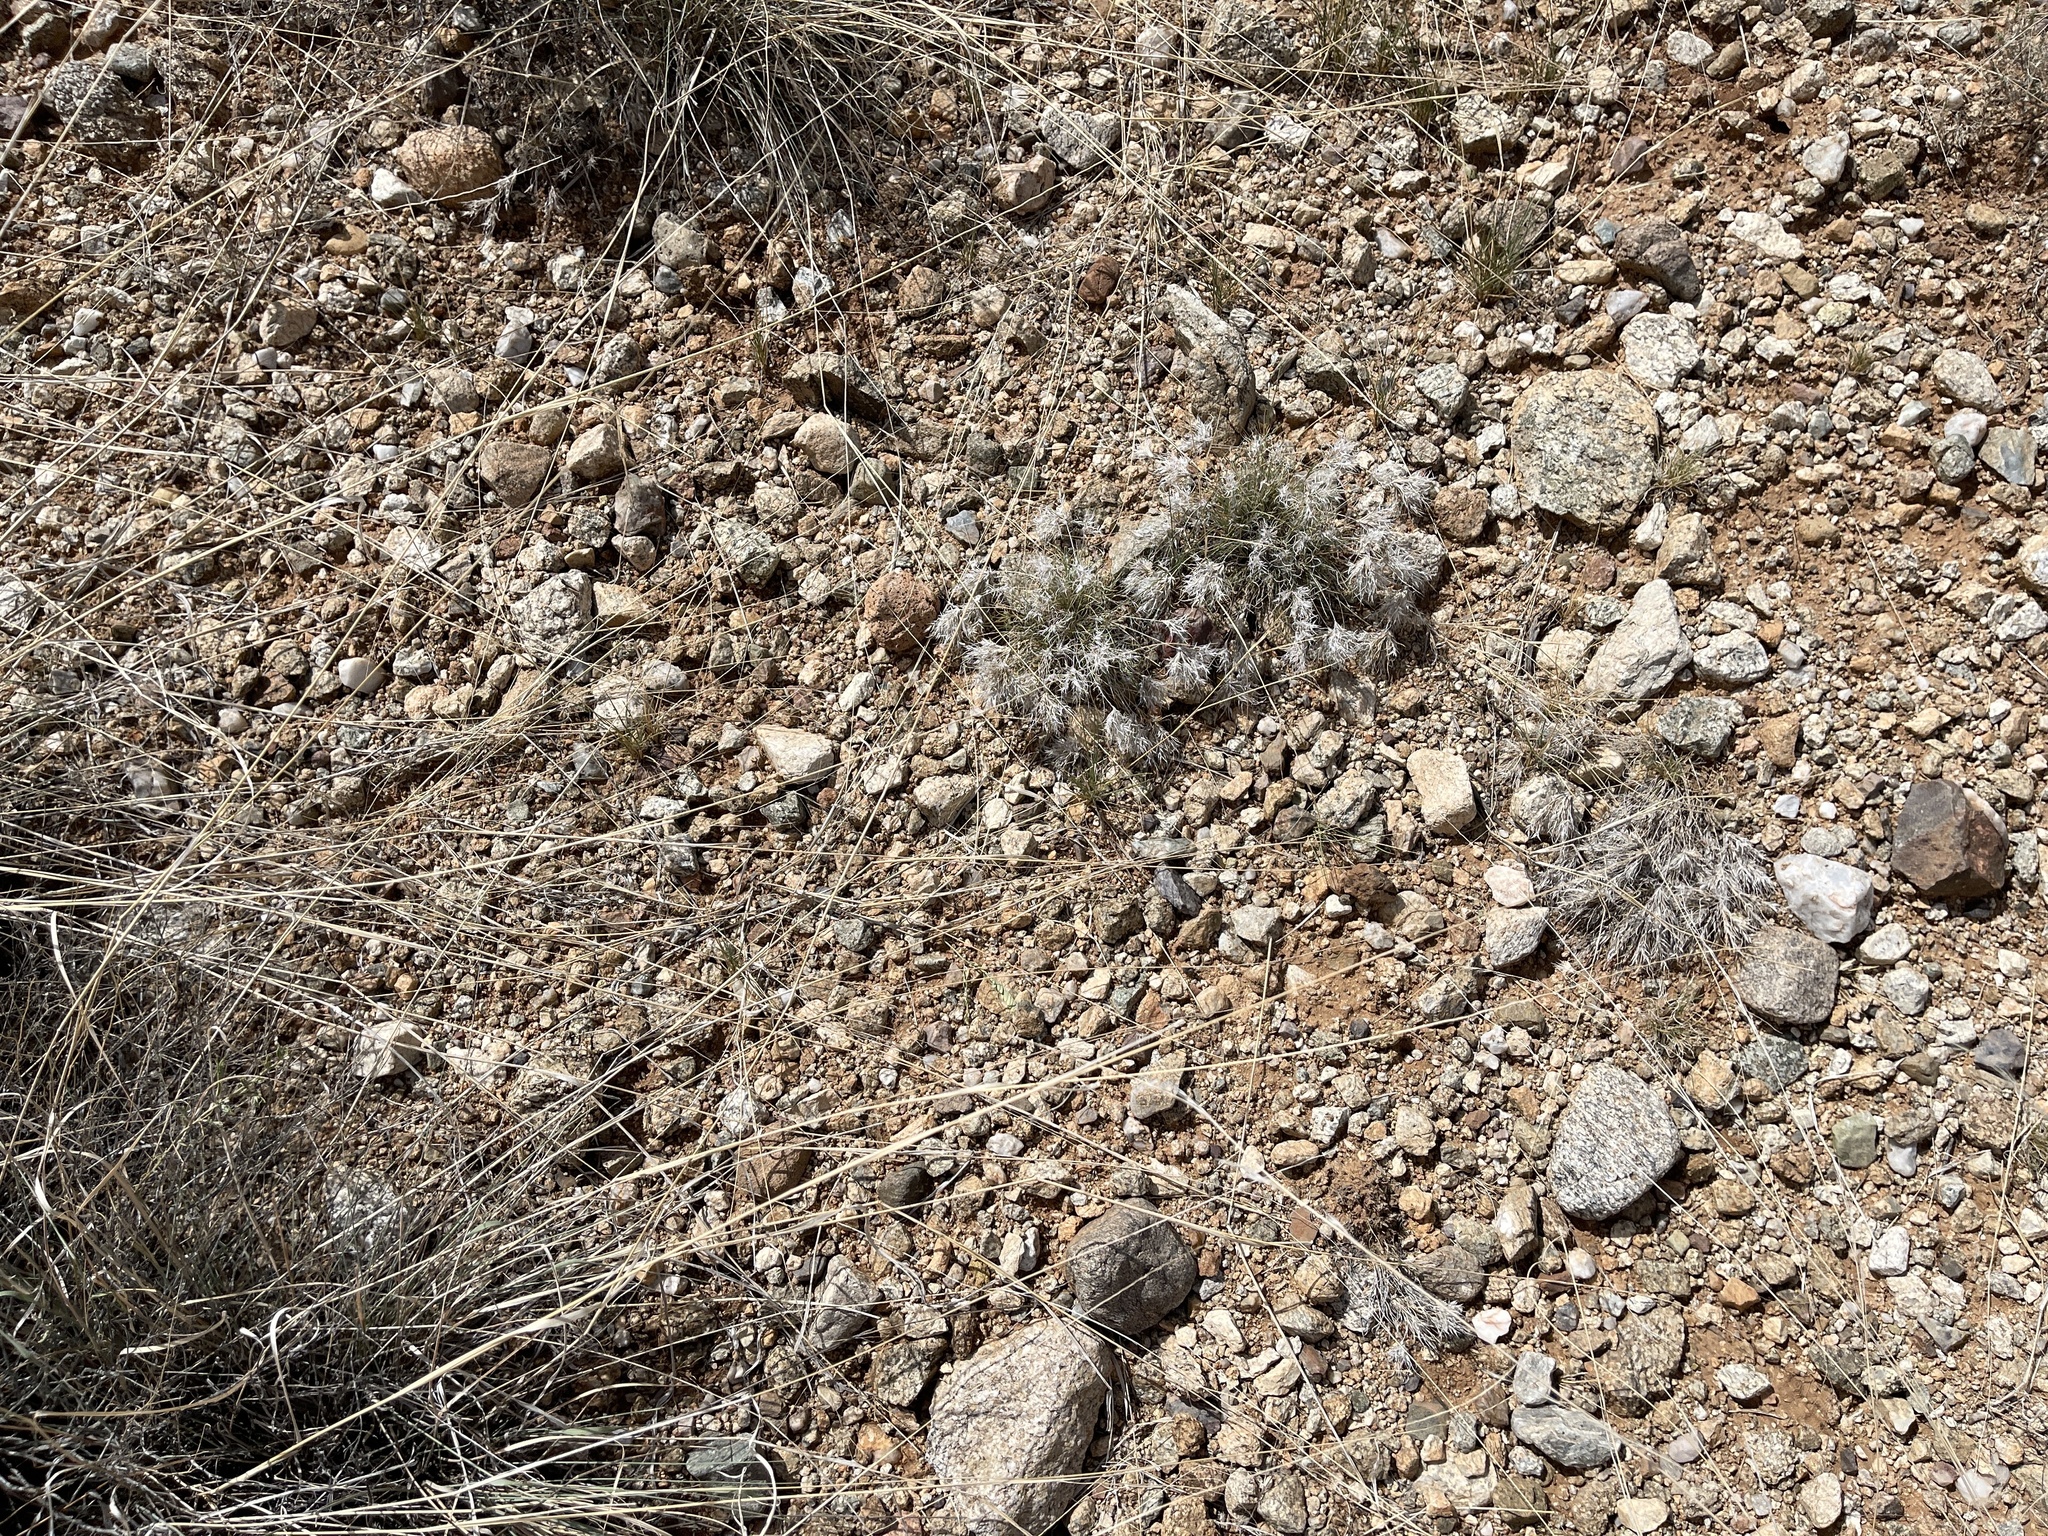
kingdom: Plantae
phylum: Tracheophyta
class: Liliopsida
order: Poales
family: Poaceae
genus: Dasyochloa
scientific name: Dasyochloa pulchella
